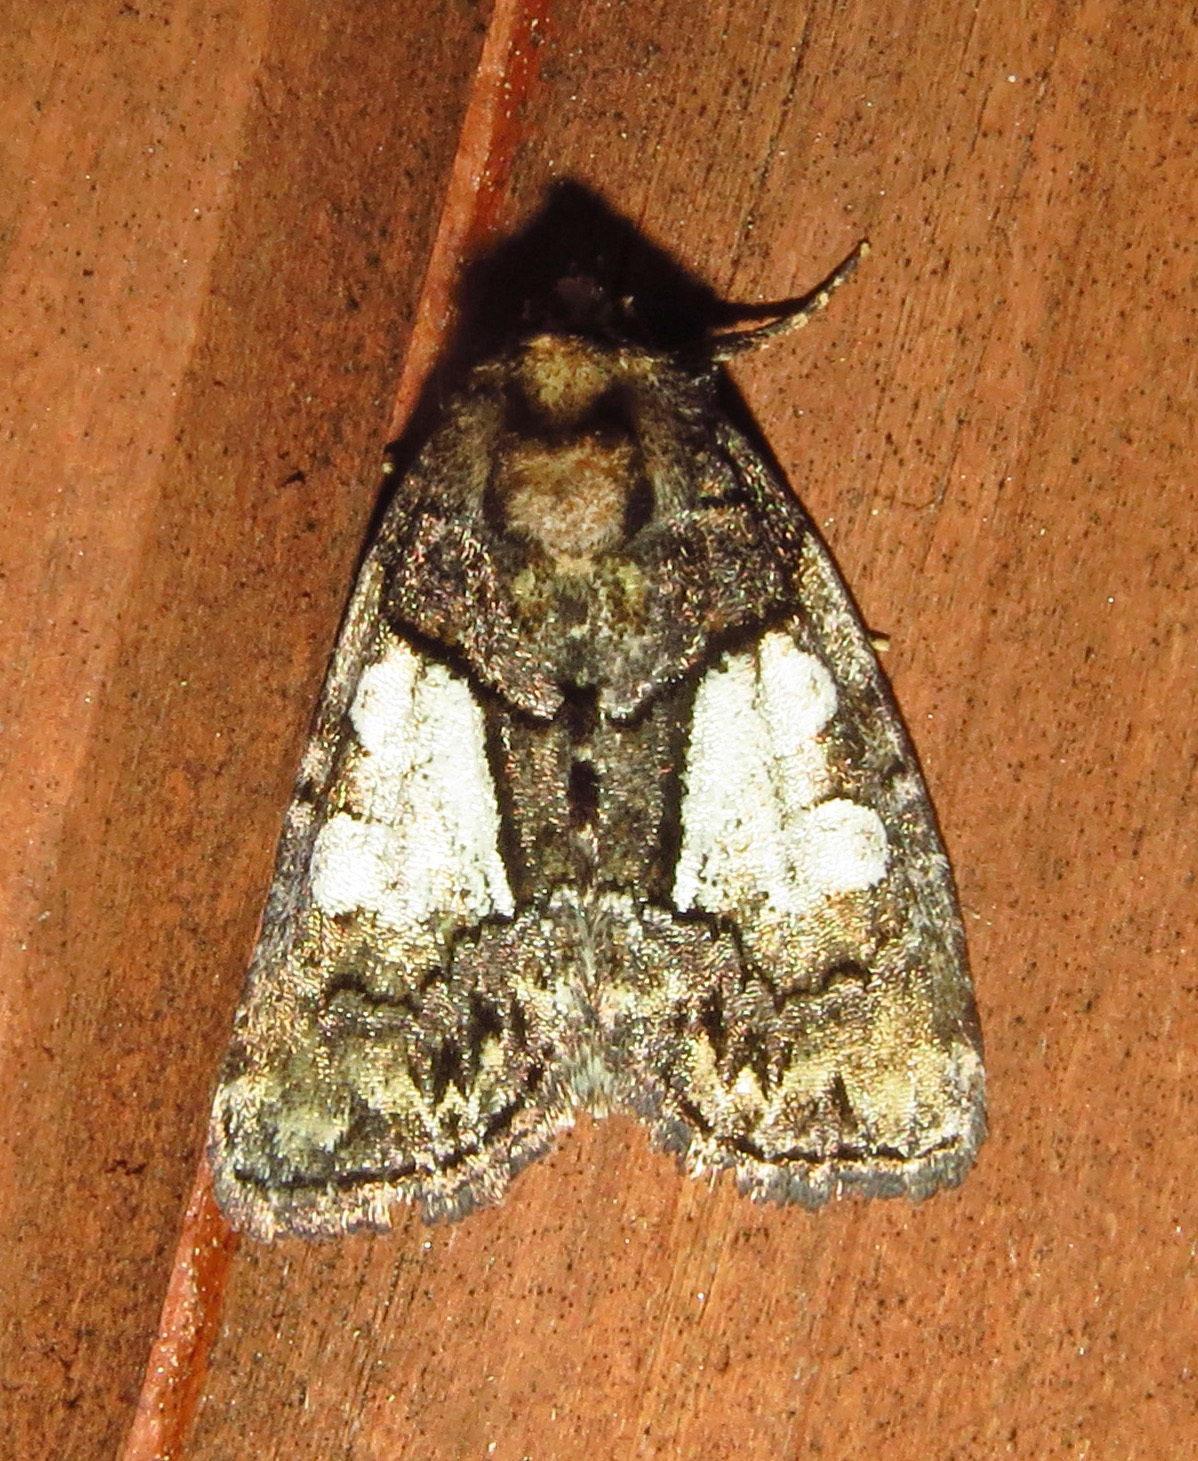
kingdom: Animalia
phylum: Arthropoda
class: Insecta
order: Lepidoptera
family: Noctuidae
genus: Chytonix
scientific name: Chytonix palliatricula
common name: Cloaked marvel
